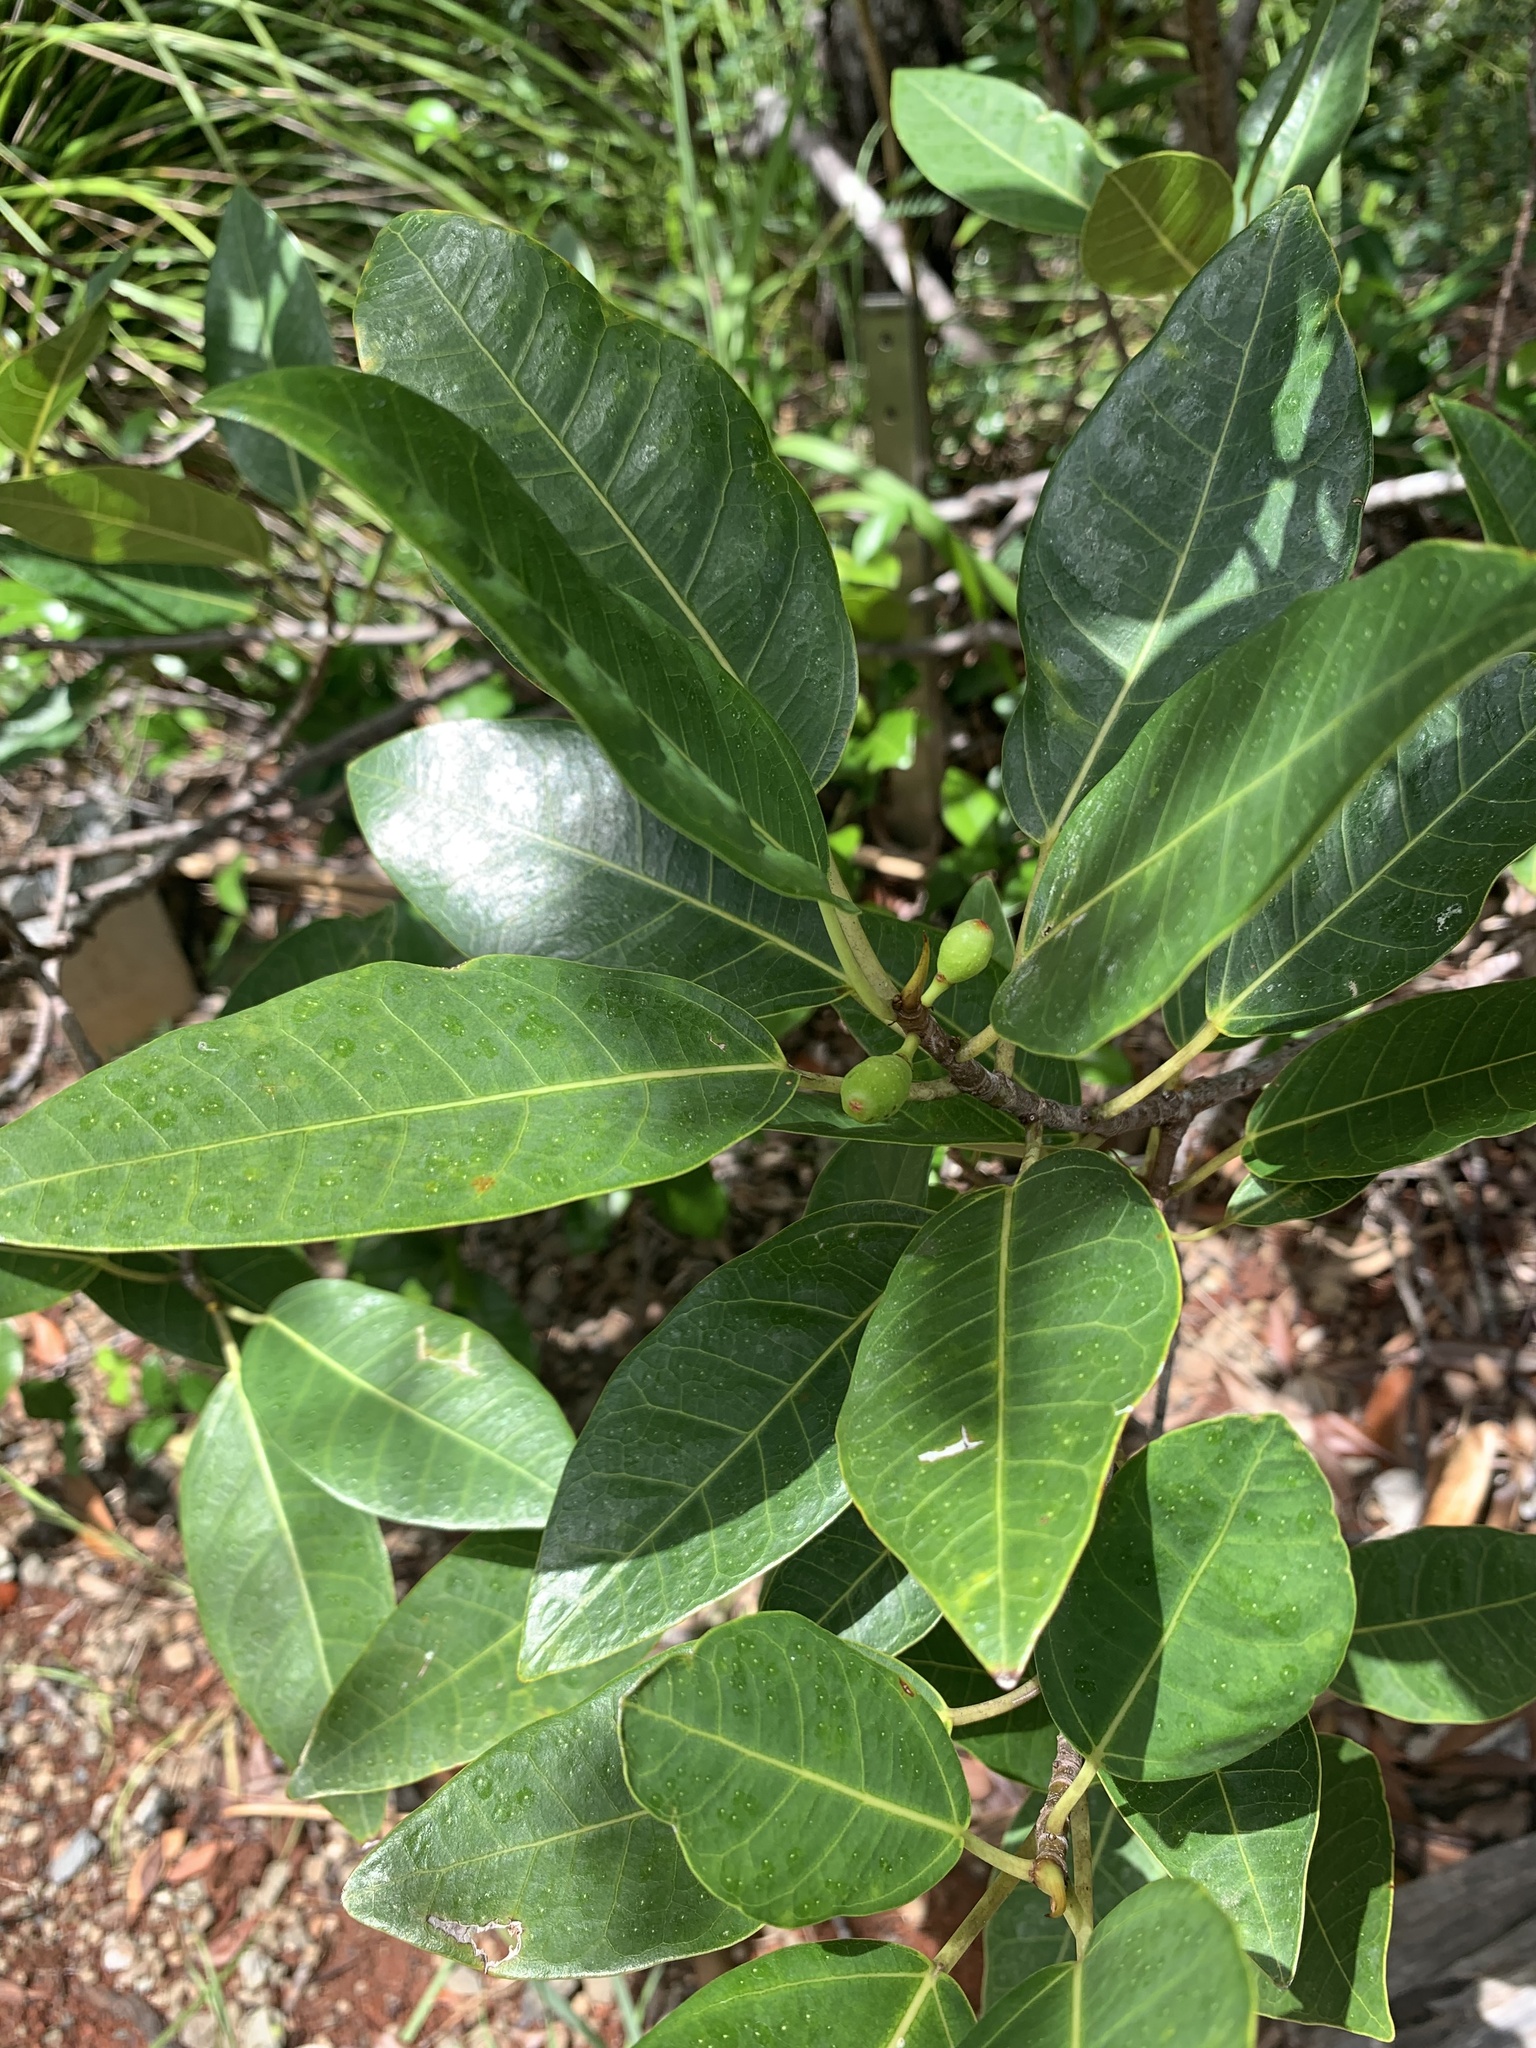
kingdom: Plantae
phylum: Tracheophyta
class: Magnoliopsida
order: Rosales
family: Moraceae
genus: Ficus
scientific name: Ficus boninsimae
